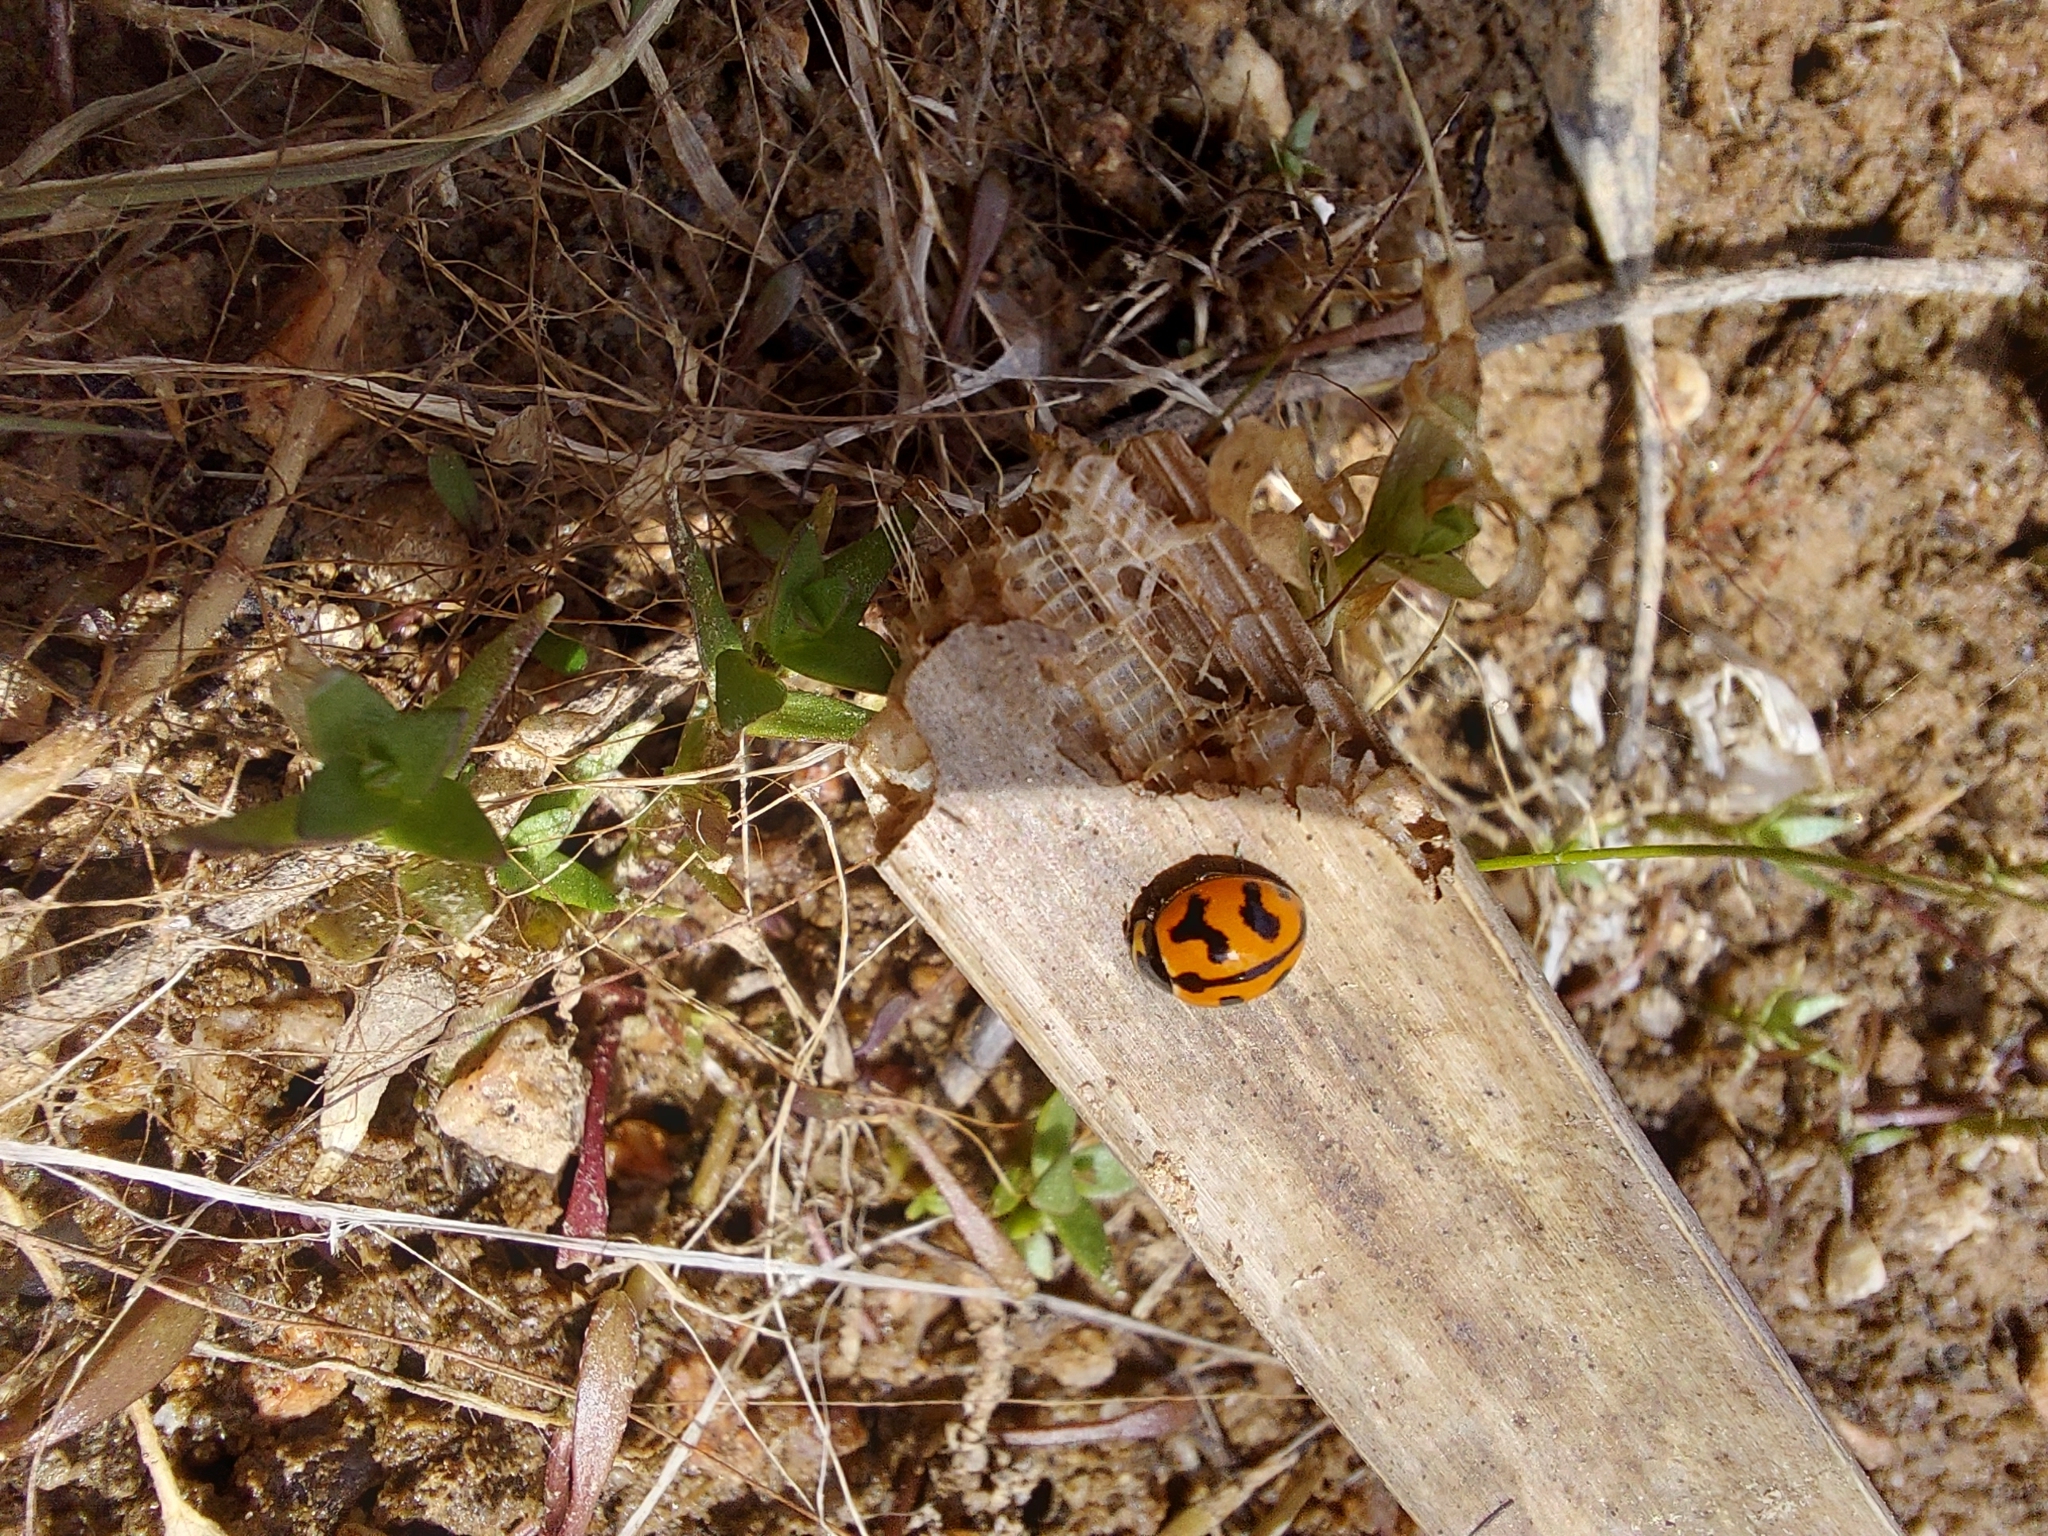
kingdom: Animalia
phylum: Arthropoda
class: Insecta
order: Coleoptera
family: Coccinellidae
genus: Coccinella
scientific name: Coccinella transversalis
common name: Transverse lady beetle
